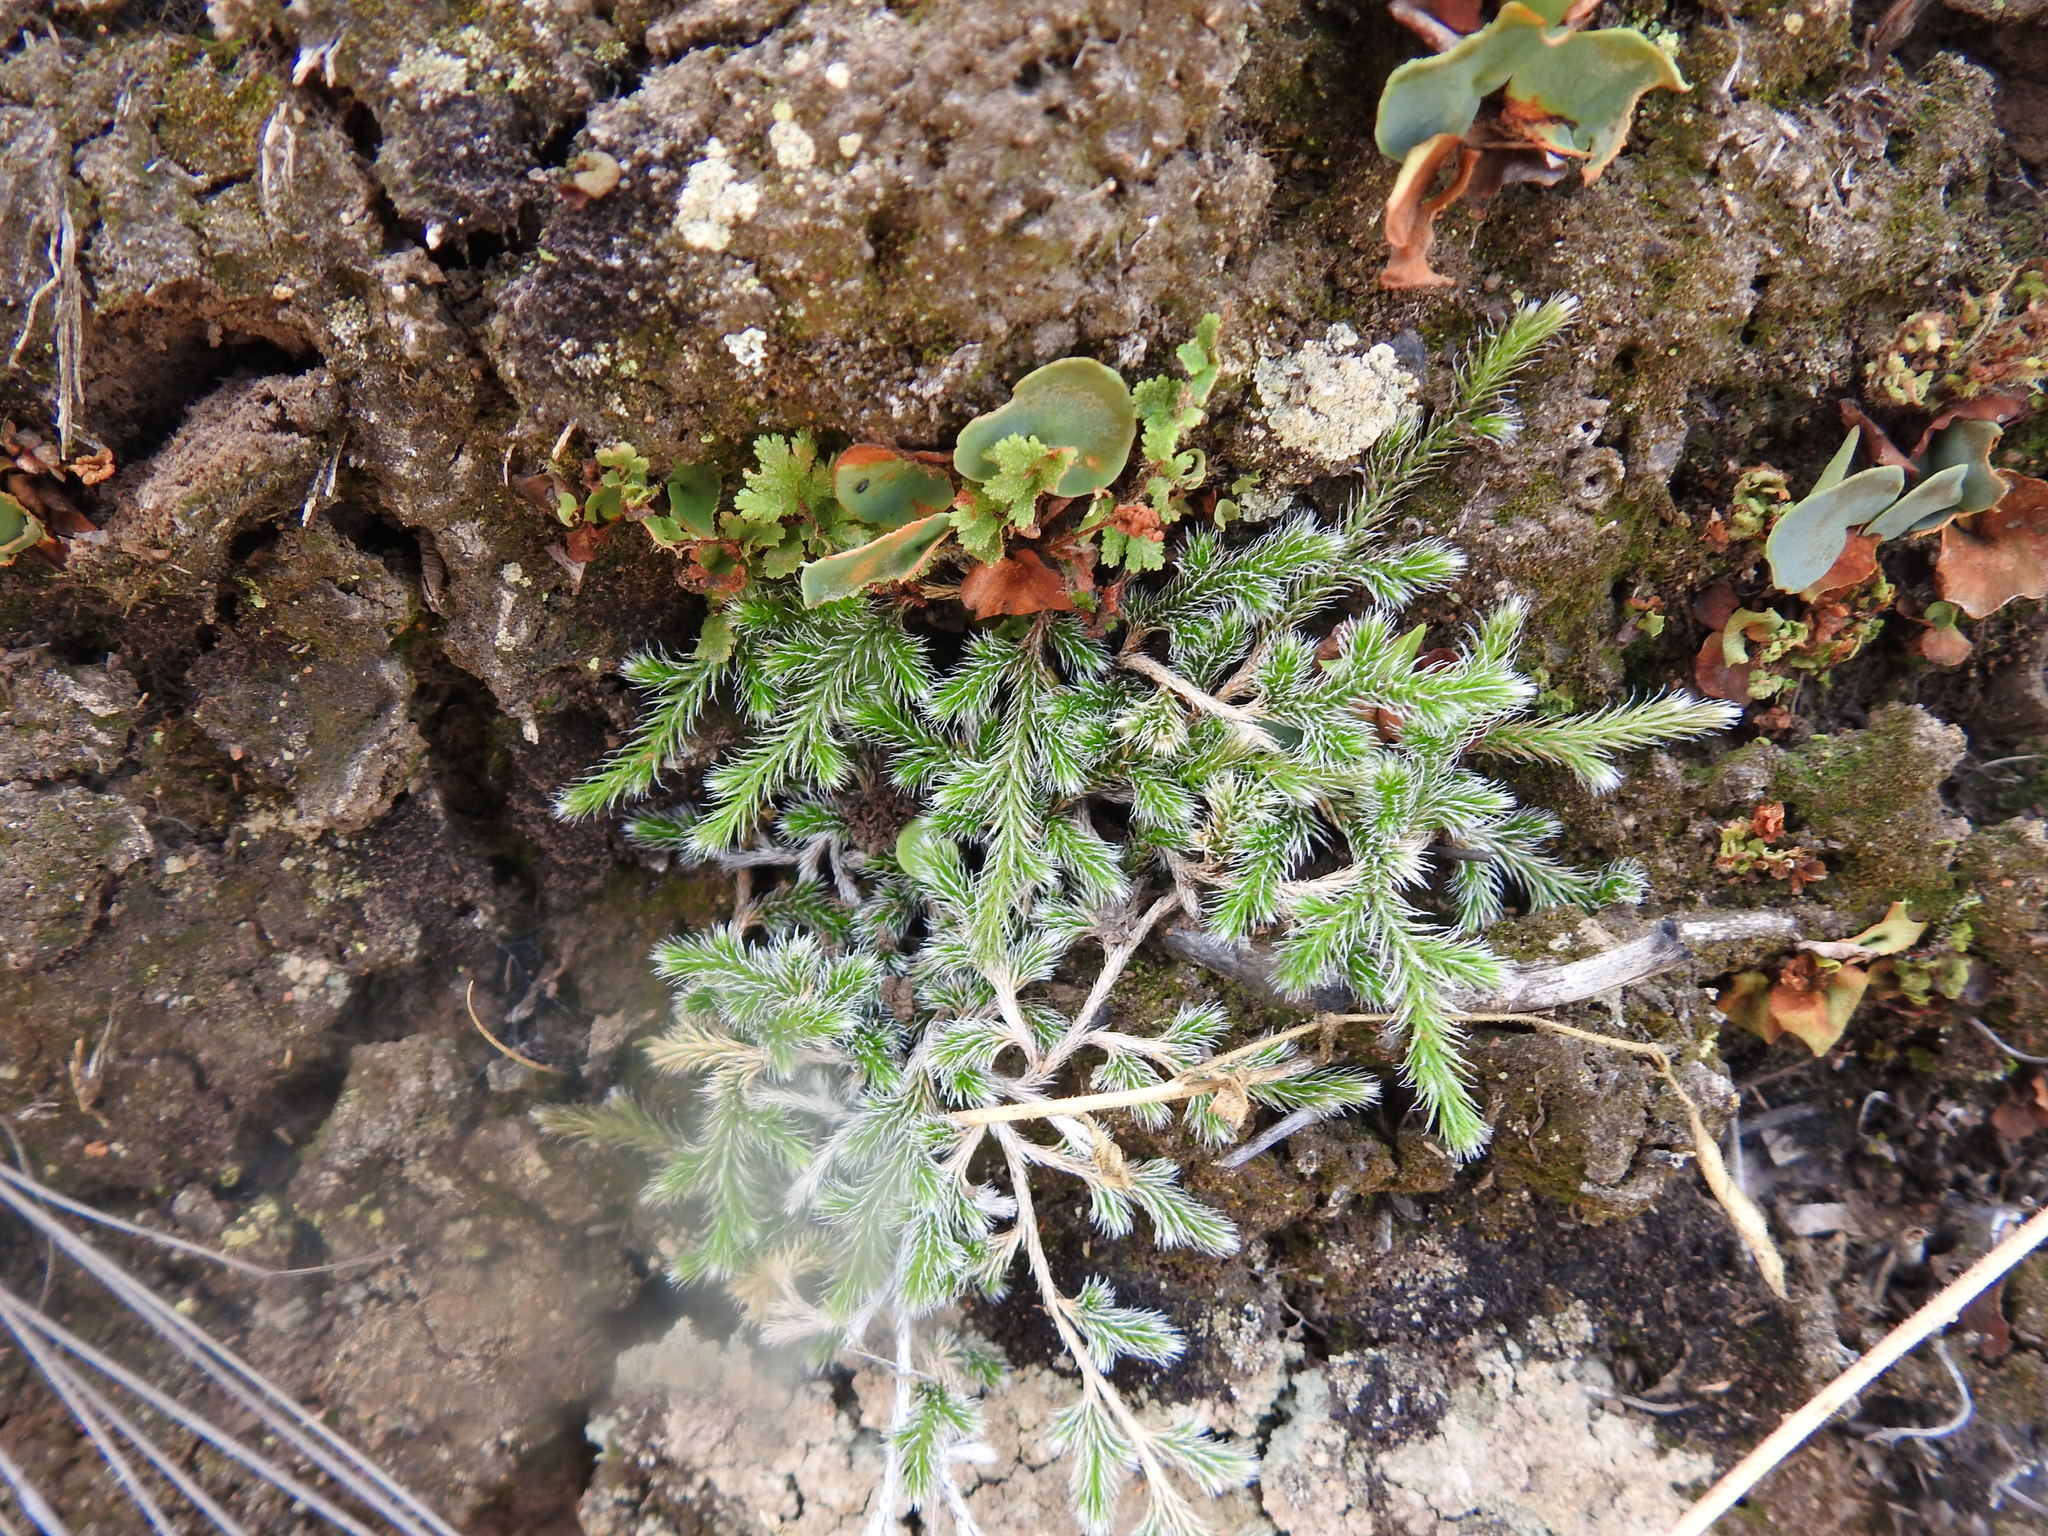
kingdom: Plantae
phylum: Tracheophyta
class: Lycopodiopsida
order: Selaginellales
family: Selaginellaceae
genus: Selaginella
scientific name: Selaginella dregei
